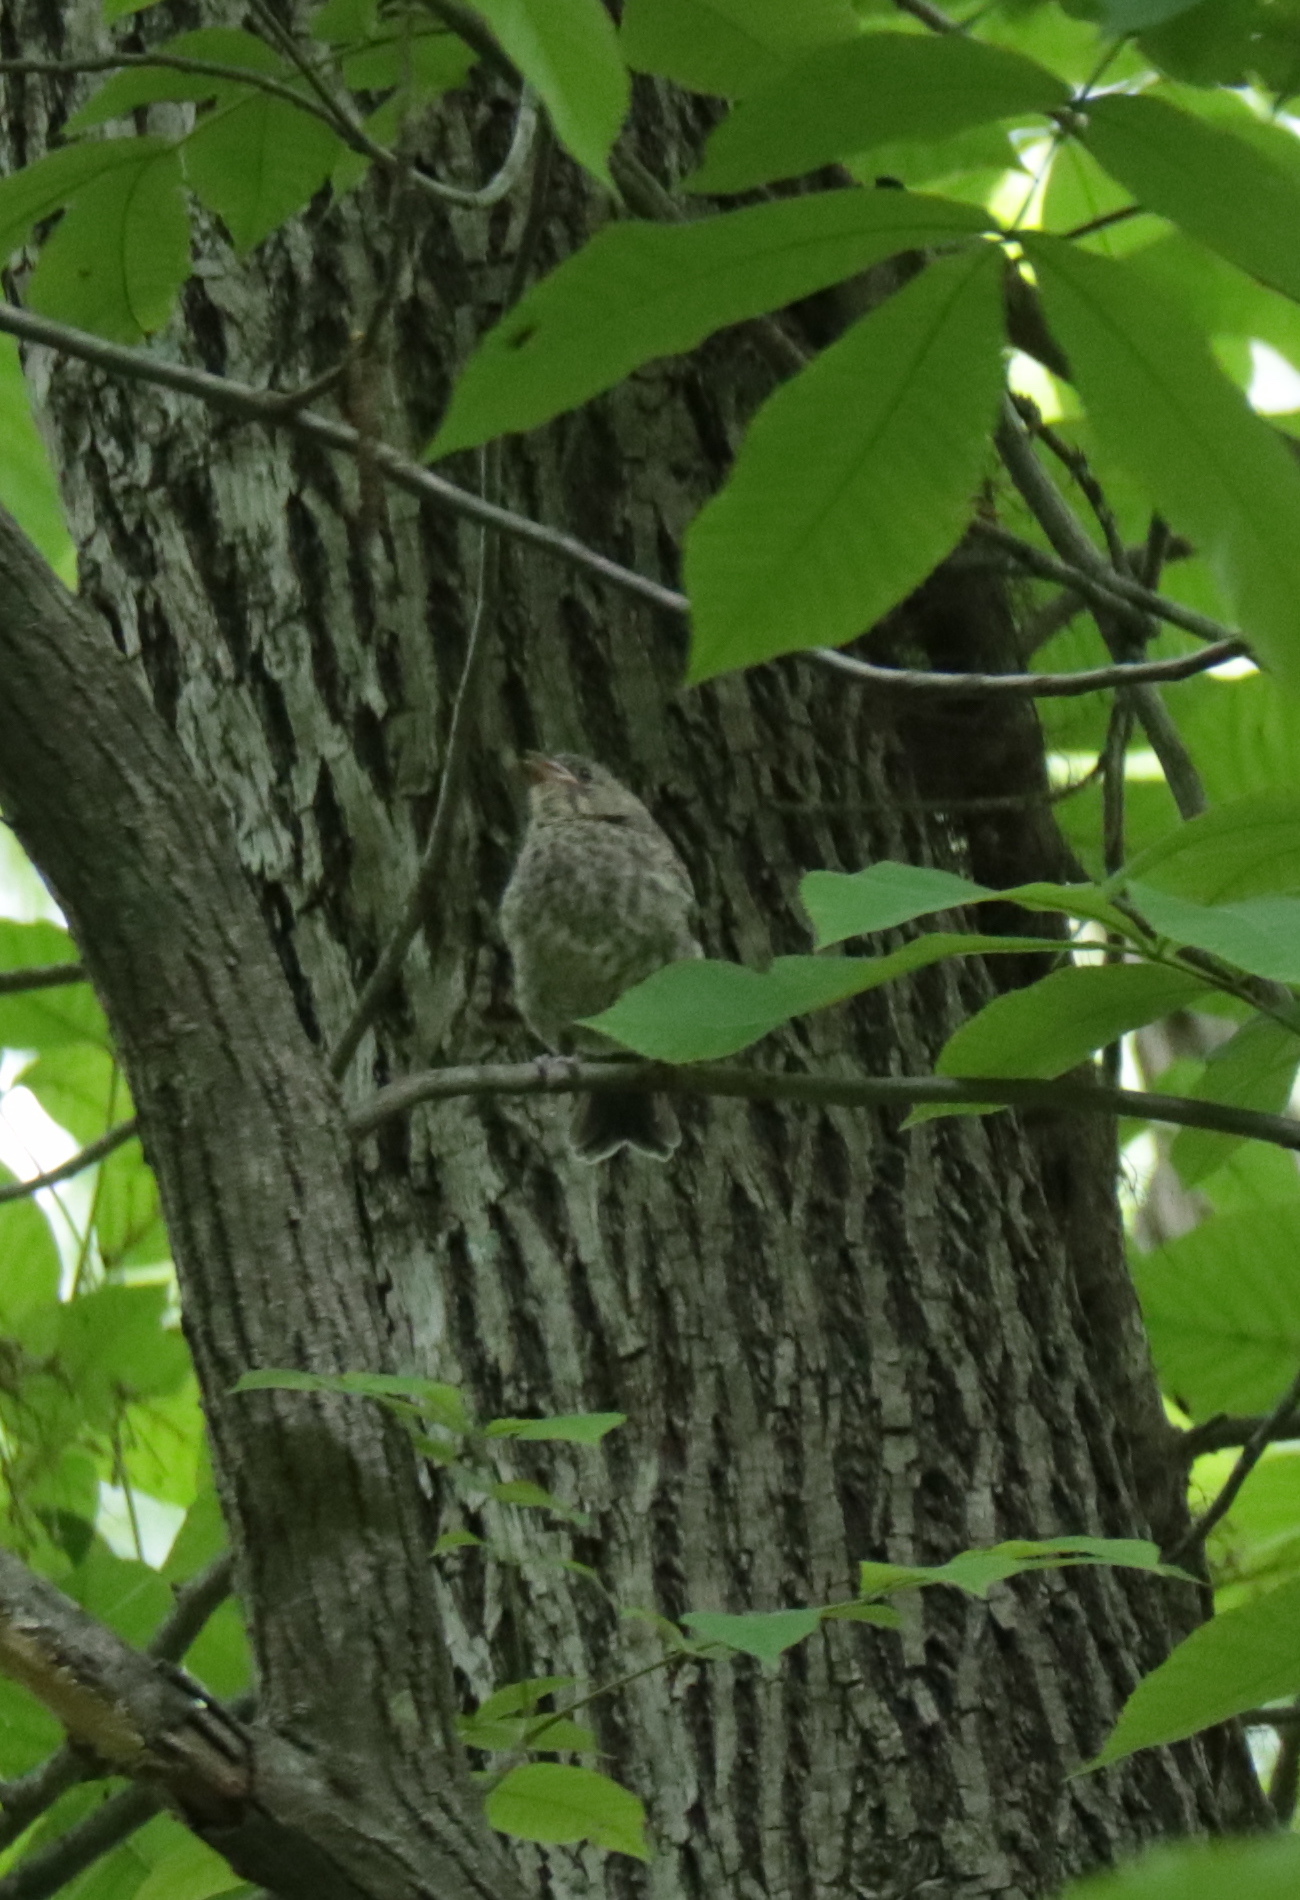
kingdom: Animalia
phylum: Chordata
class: Aves
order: Passeriformes
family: Icteridae
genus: Molothrus
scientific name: Molothrus ater
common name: Brown-headed cowbird
